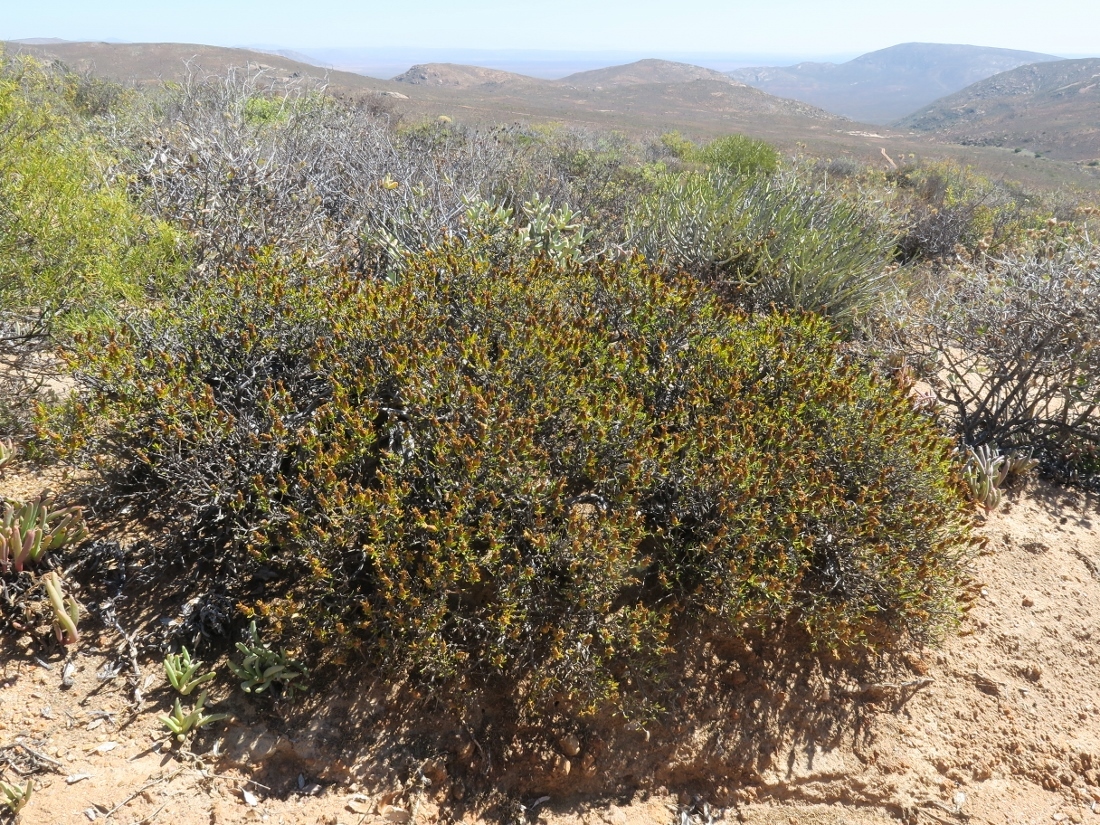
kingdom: Plantae
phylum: Tracheophyta
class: Magnoliopsida
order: Asterales
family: Asteraceae
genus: Pteronia
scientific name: Pteronia ciliata
